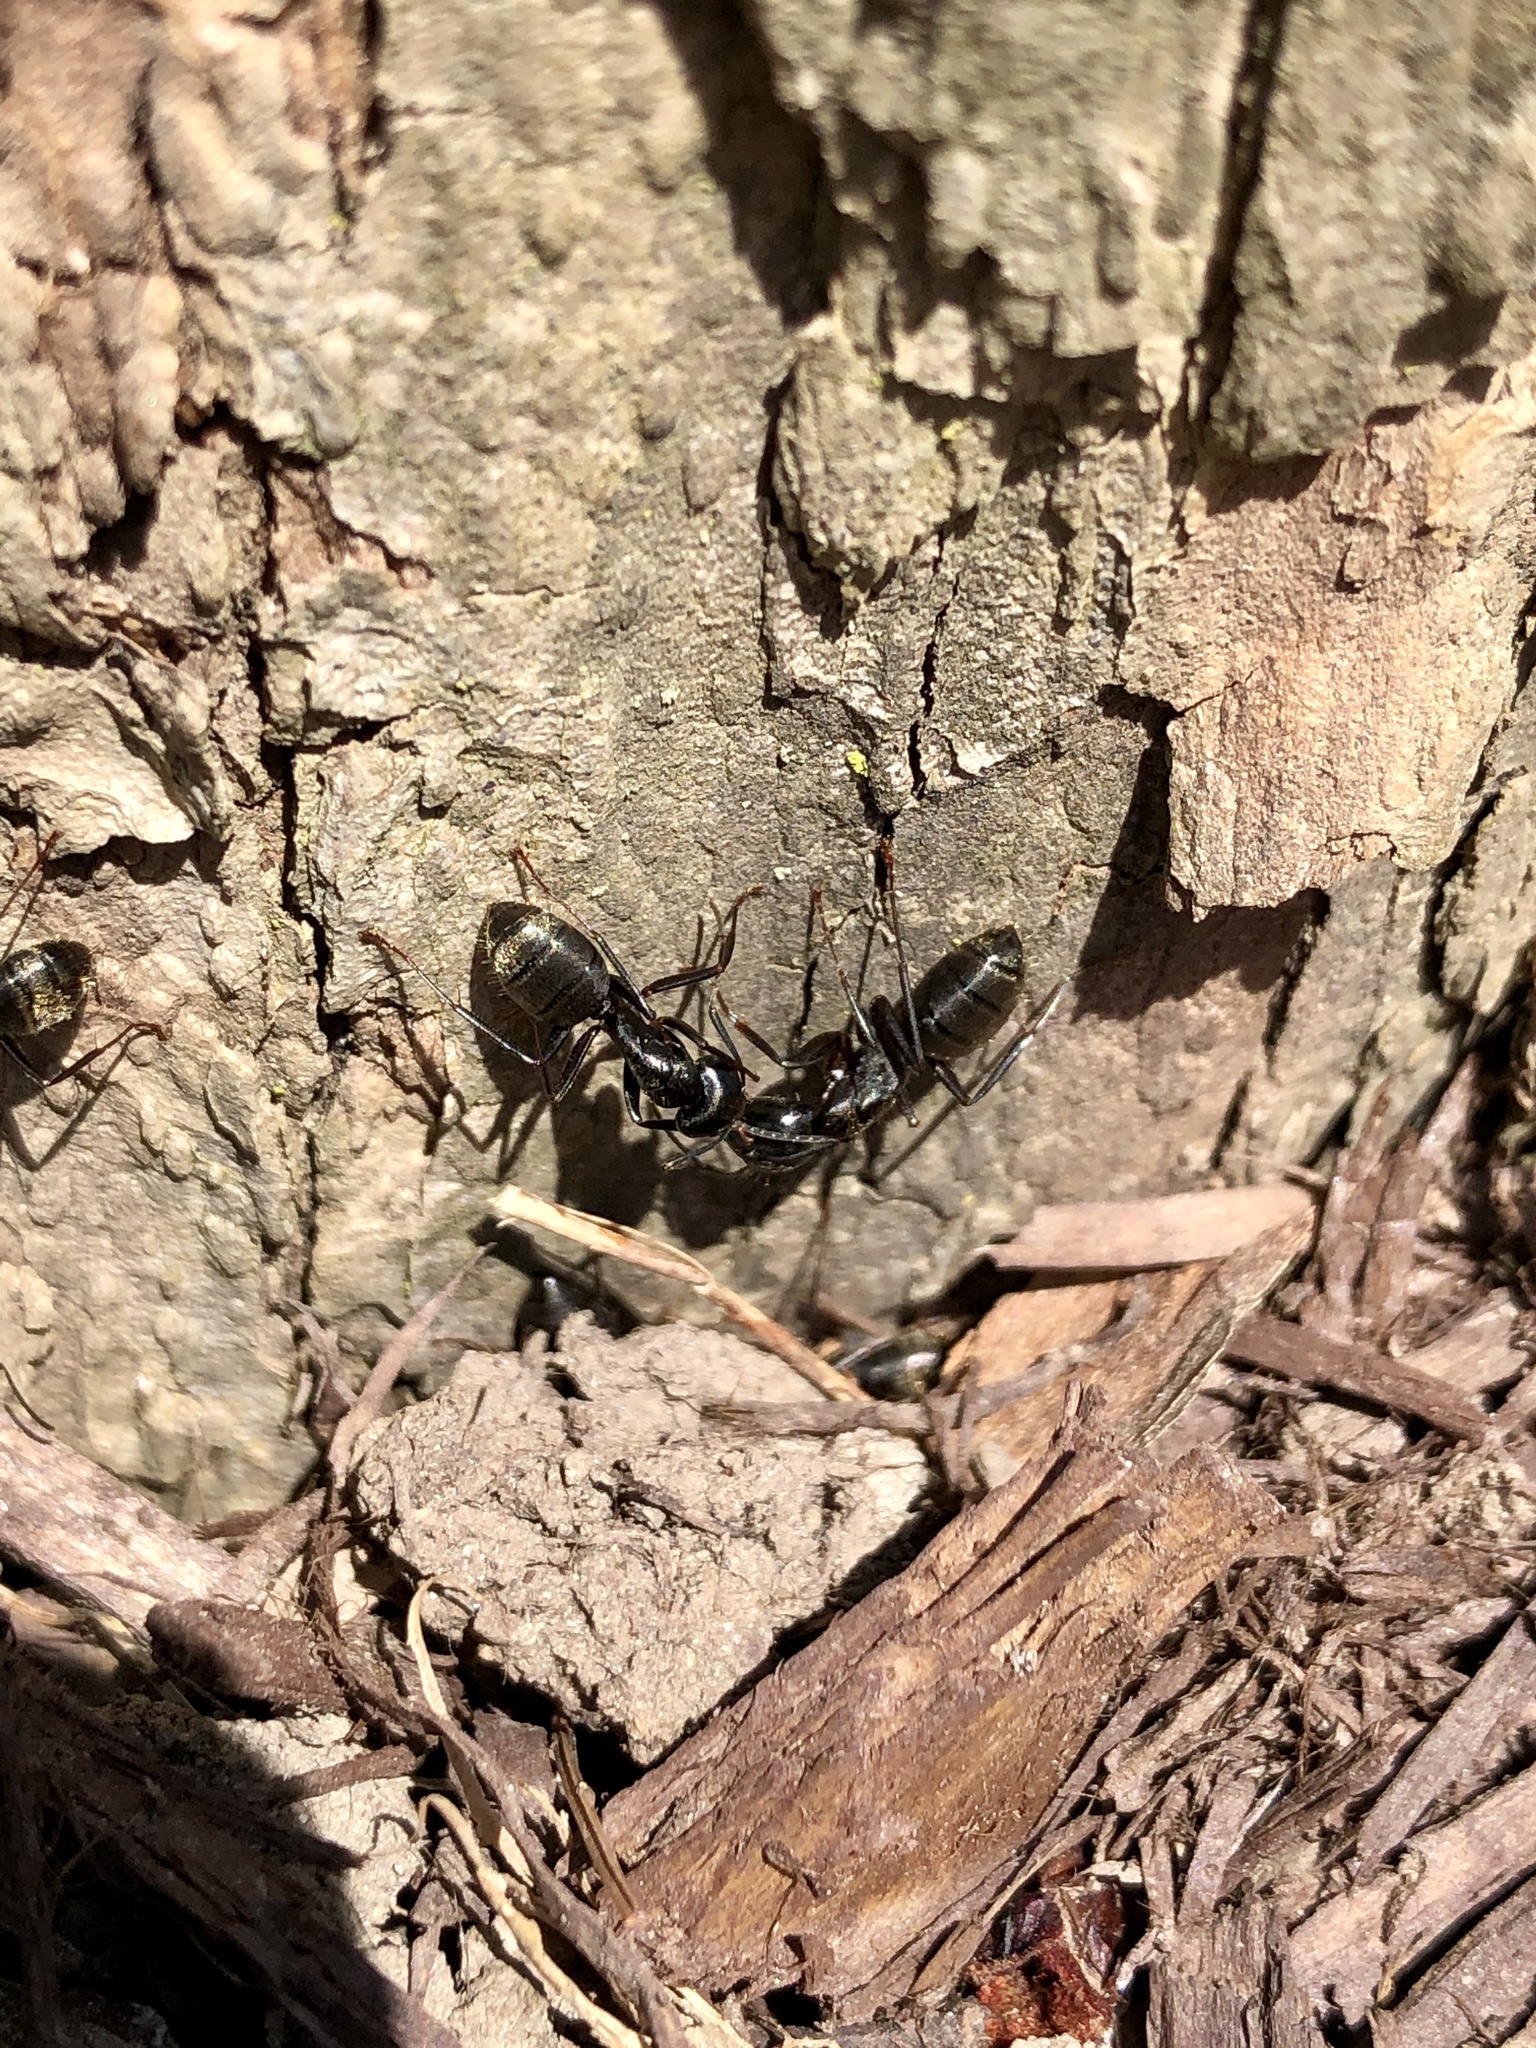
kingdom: Animalia
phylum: Arthropoda
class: Insecta
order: Hymenoptera
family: Formicidae
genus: Camponotus
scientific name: Camponotus pennsylvanicus
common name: Black carpenter ant
